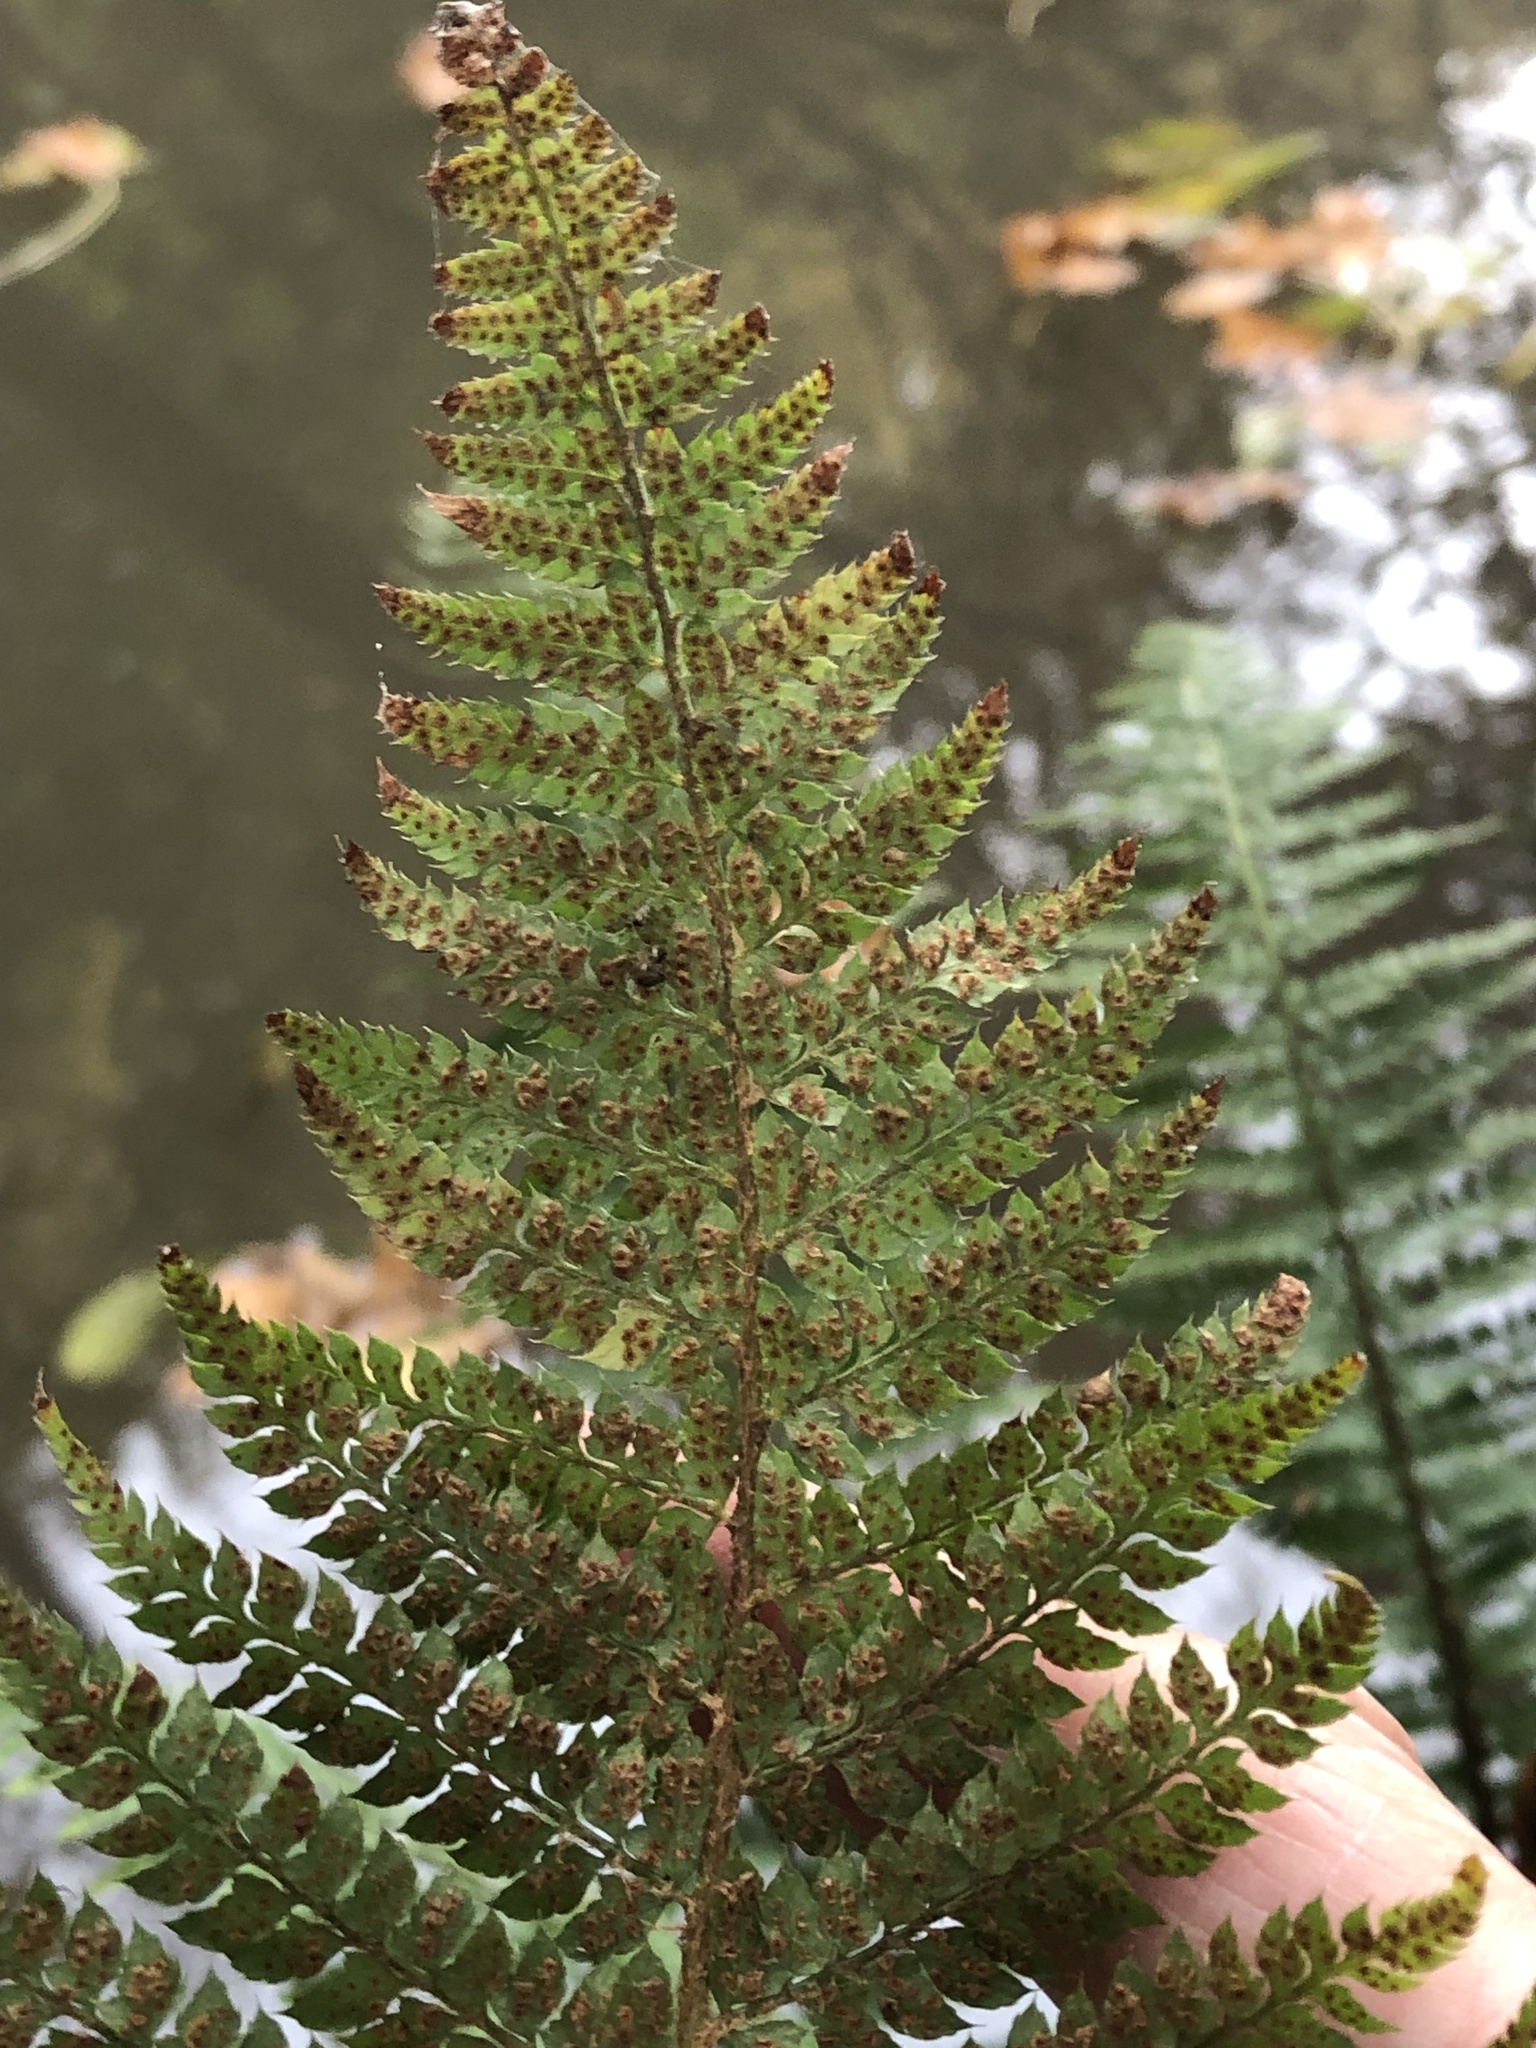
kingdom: Plantae
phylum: Tracheophyta
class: Polypodiopsida
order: Polypodiales
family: Dryopteridaceae
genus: Polystichum
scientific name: Polystichum setiferum
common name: Soft shield-fern
